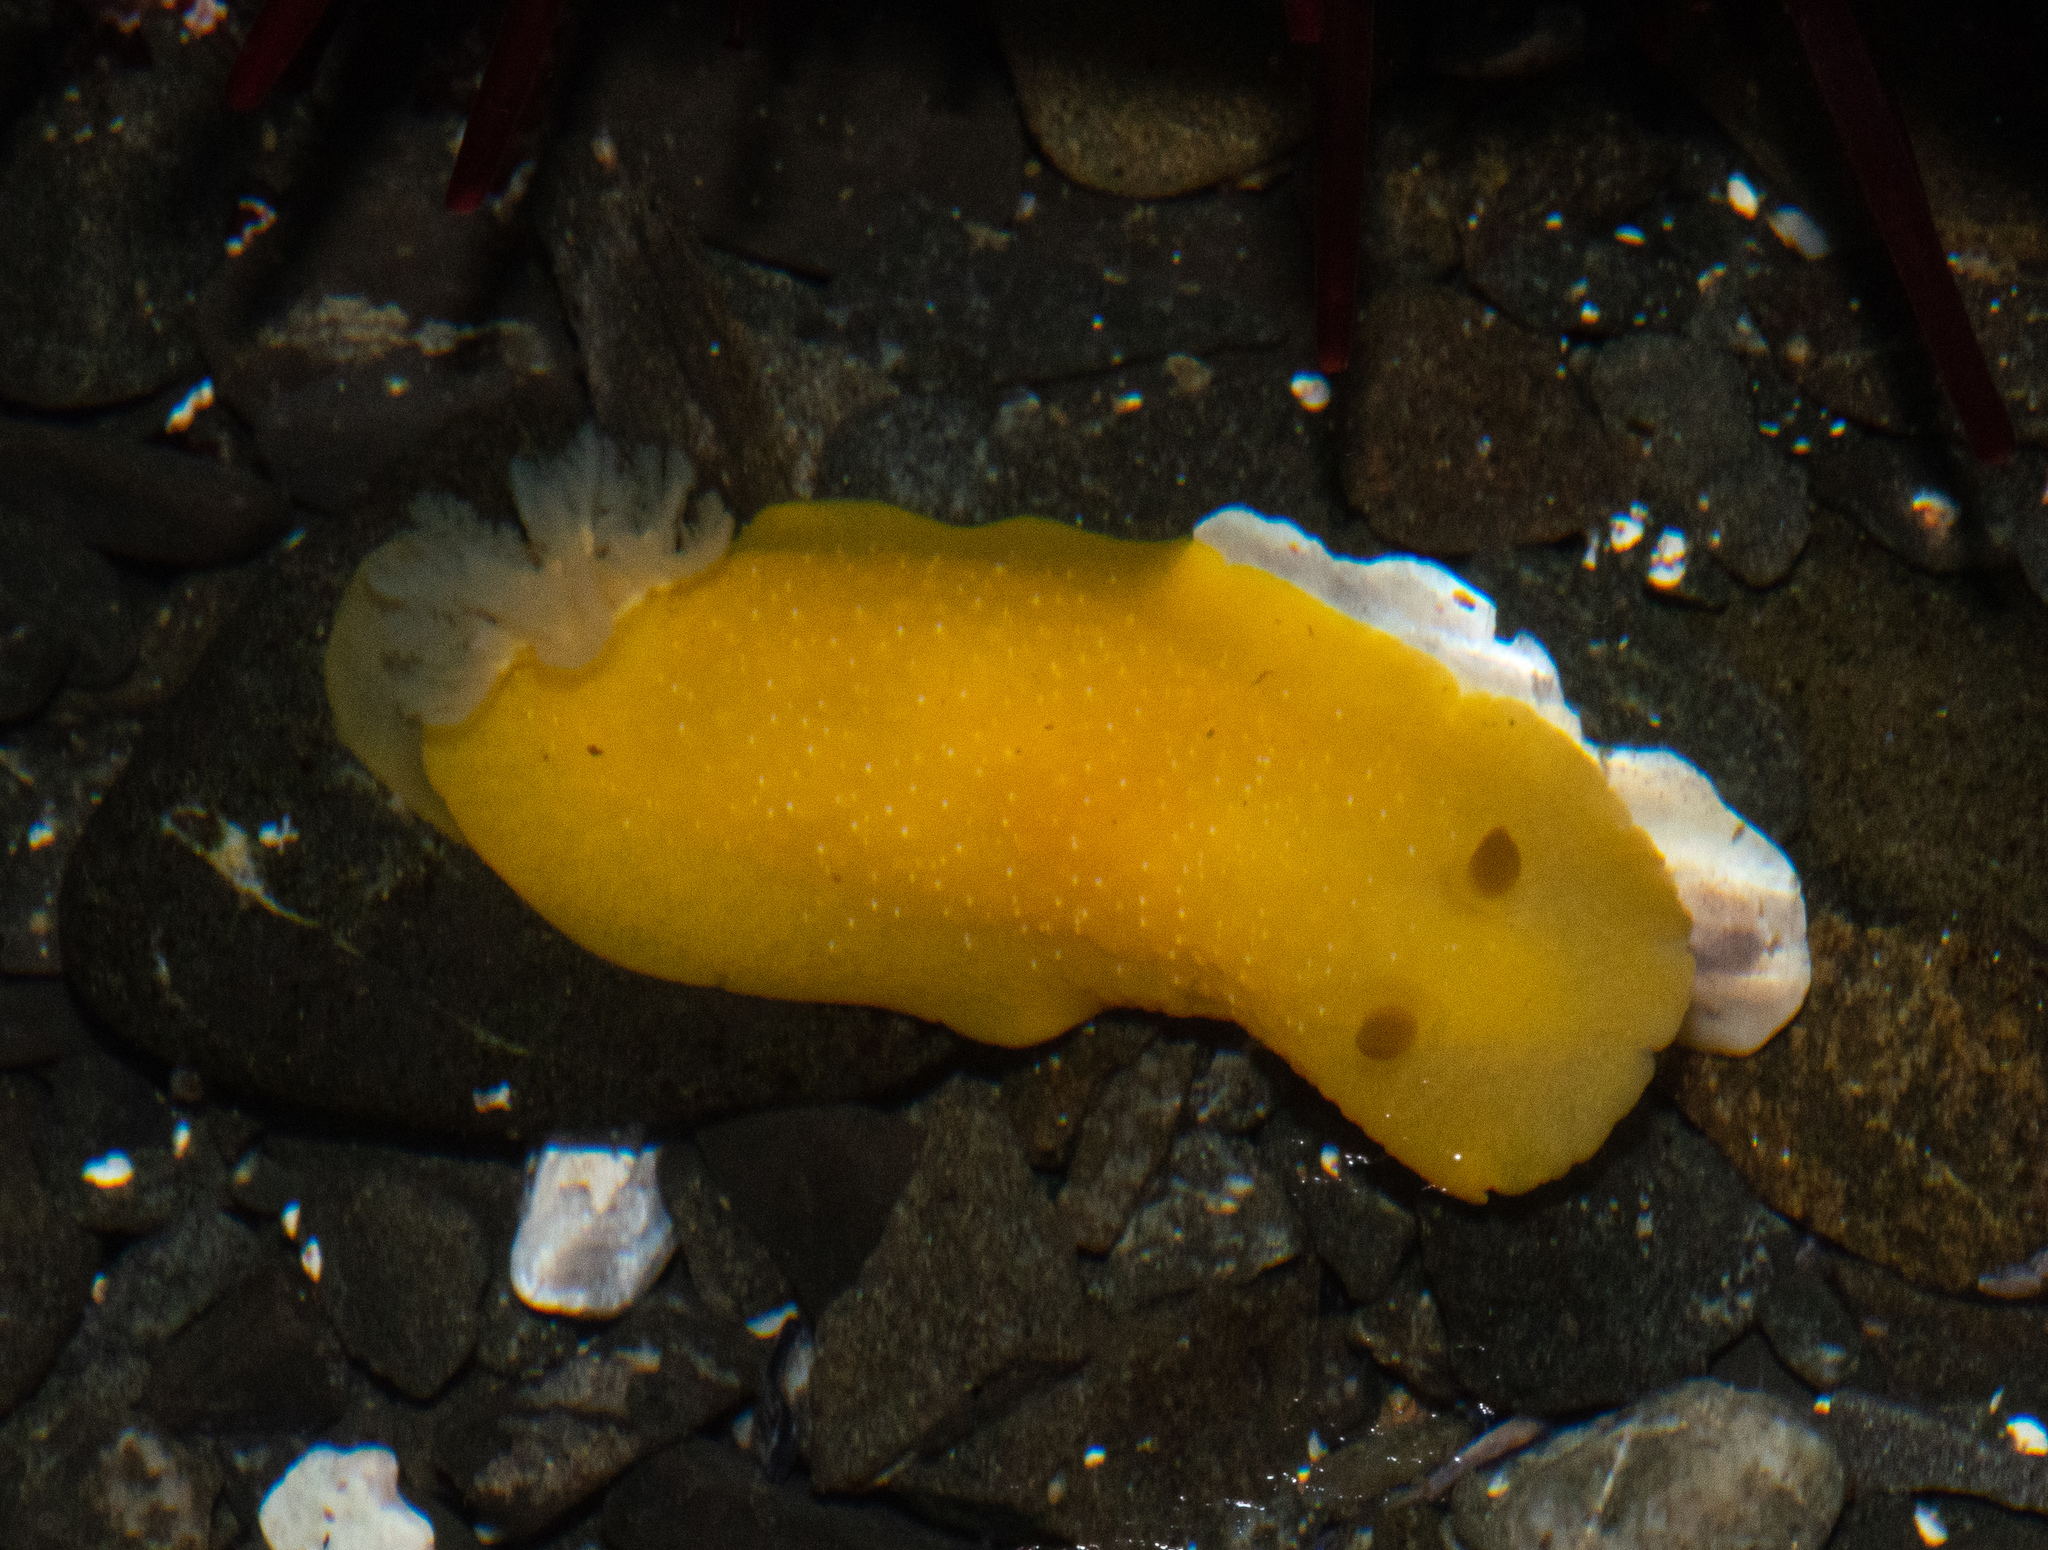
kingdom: Animalia
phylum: Mollusca
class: Gastropoda
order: Nudibranchia
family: Dendrodorididae
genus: Doriopsilla
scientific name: Doriopsilla fulva
